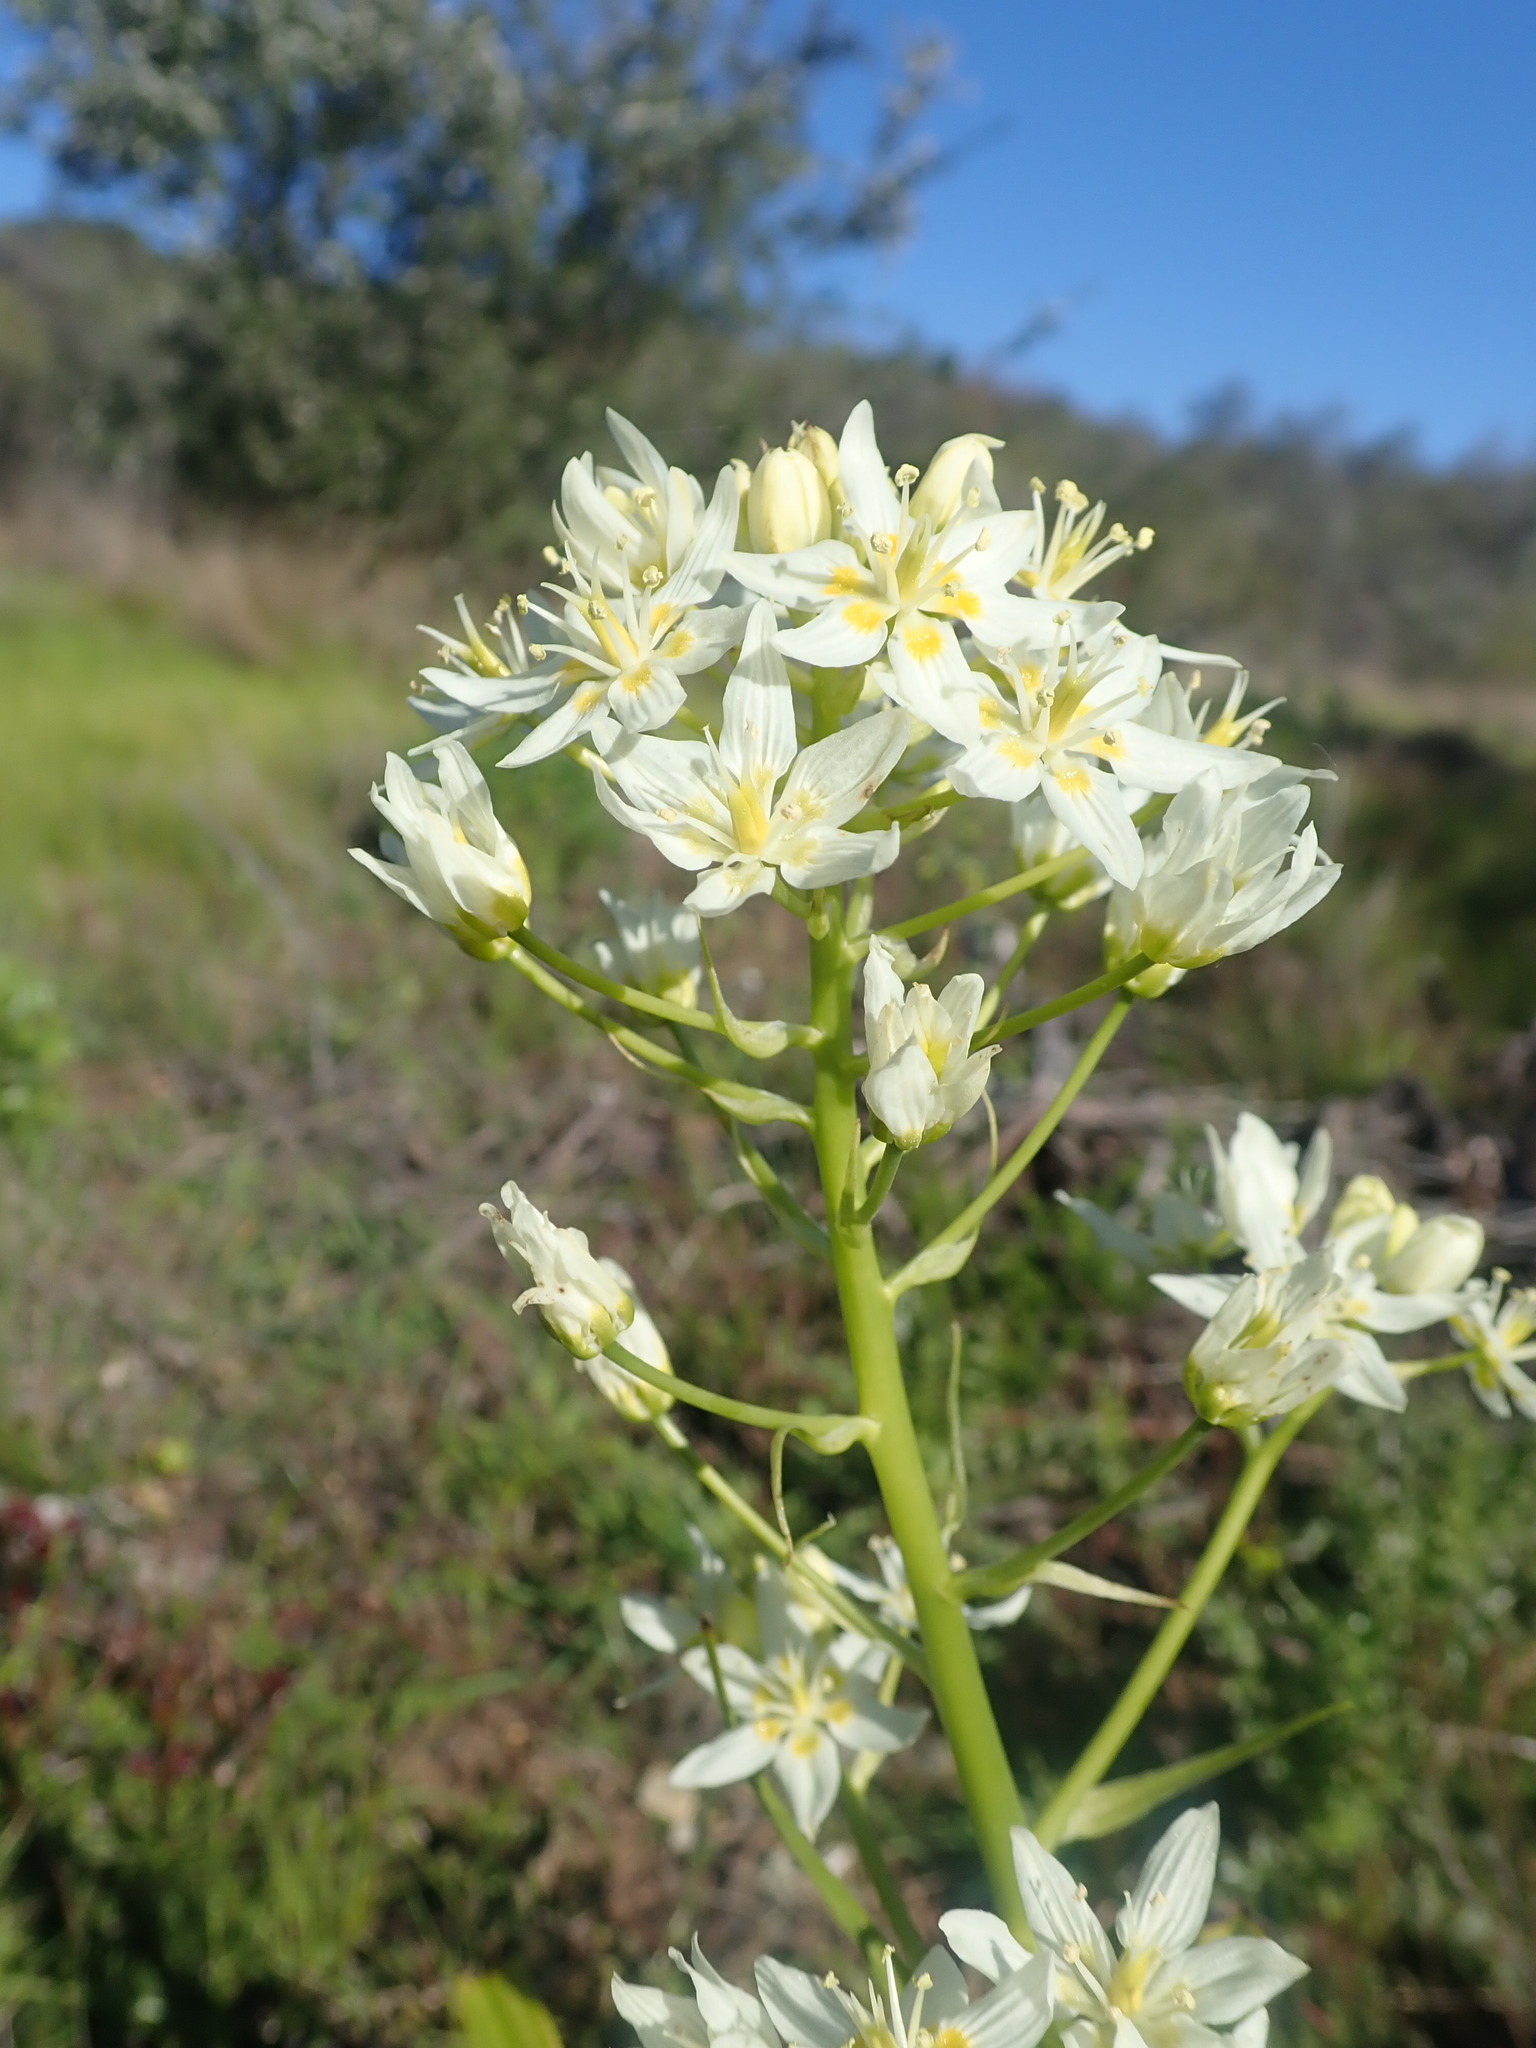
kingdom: Plantae
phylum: Tracheophyta
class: Liliopsida
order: Liliales
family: Melanthiaceae
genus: Toxicoscordion
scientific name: Toxicoscordion fremontii
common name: Fremont's death camas
